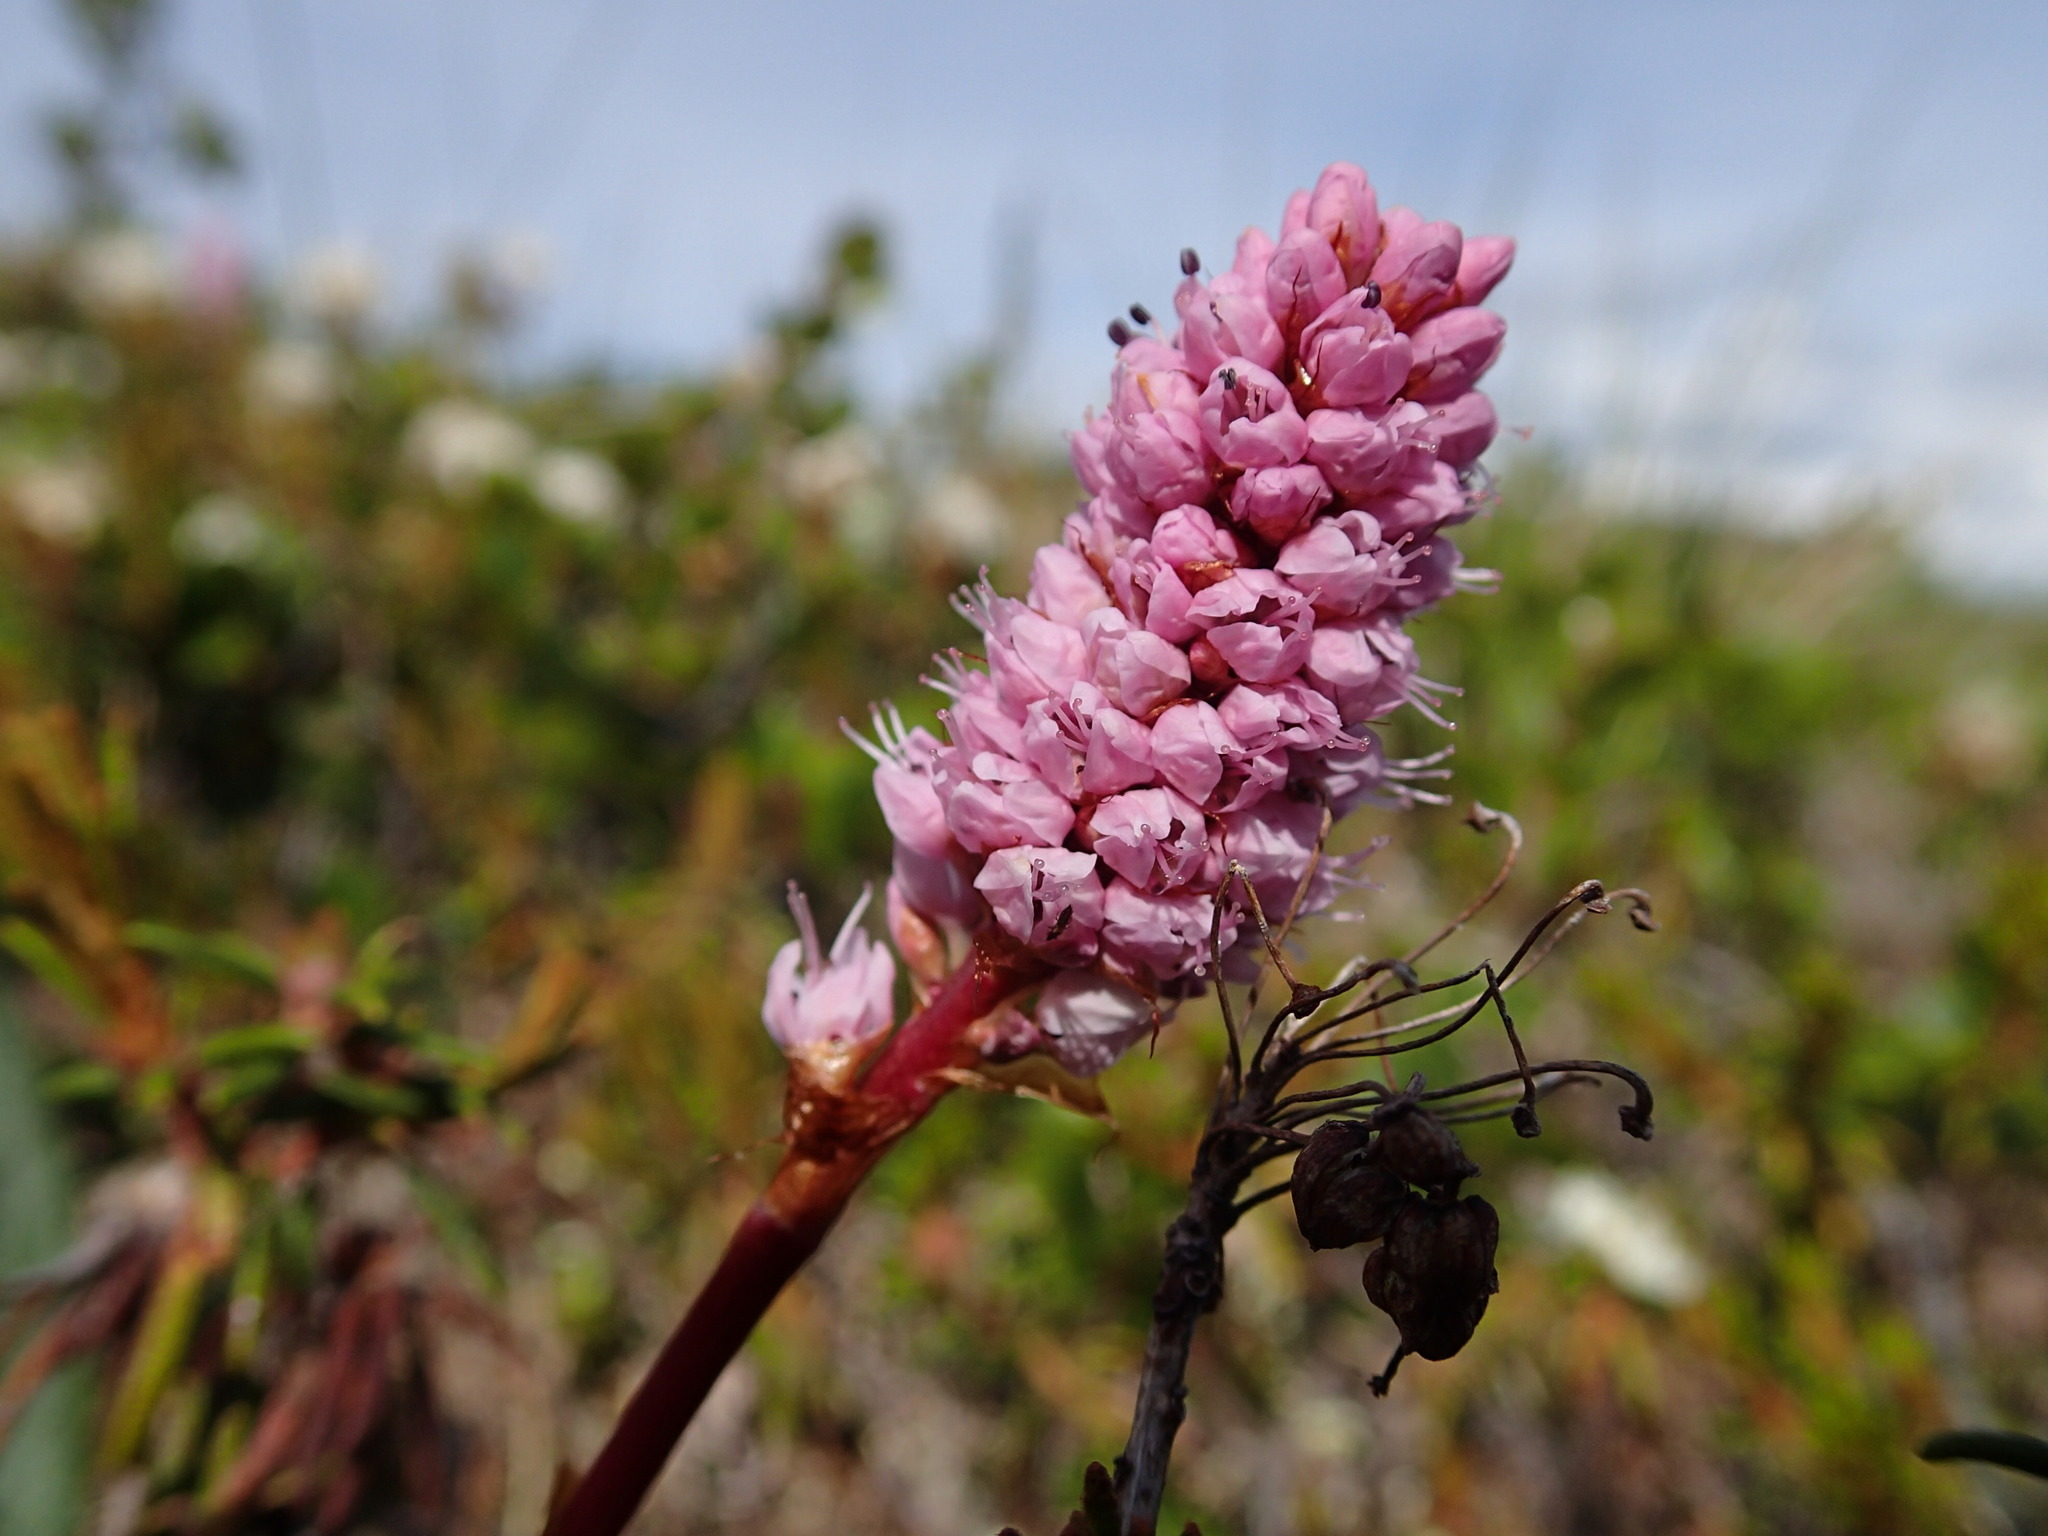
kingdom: Plantae
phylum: Tracheophyta
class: Magnoliopsida
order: Caryophyllales
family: Polygonaceae
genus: Bistorta
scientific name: Bistorta plumosa
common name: Meadow bistort
